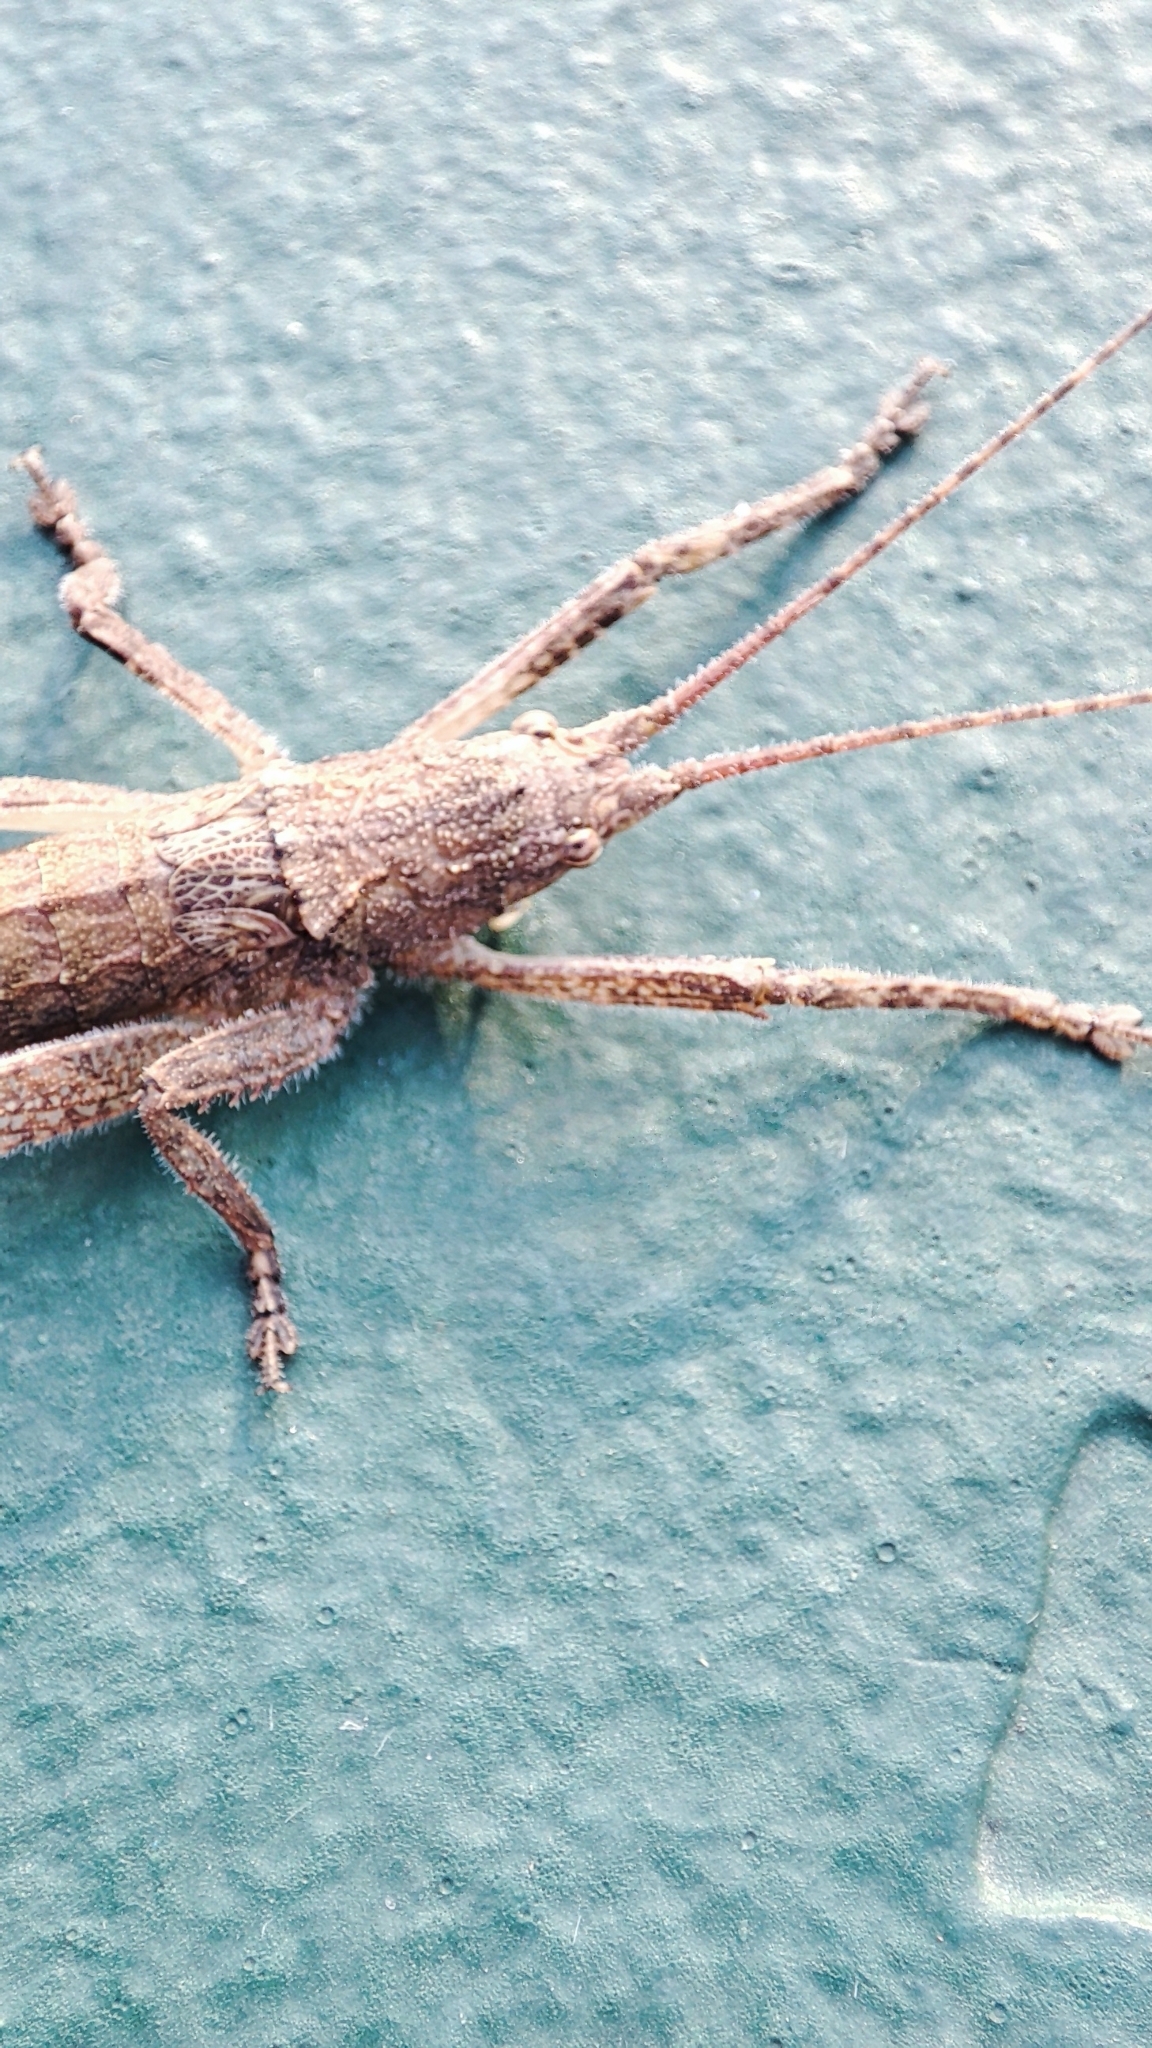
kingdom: Animalia
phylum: Arthropoda
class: Insecta
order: Orthoptera
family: Tettigoniidae
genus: Dasyscelus
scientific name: Dasyscelus normalis
